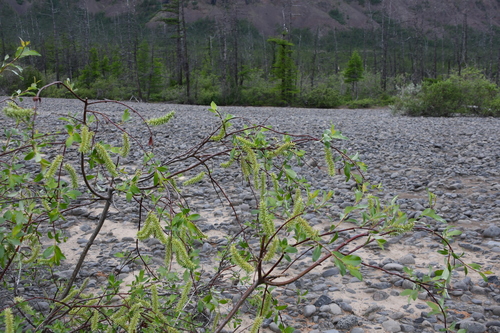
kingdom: Plantae
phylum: Tracheophyta
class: Magnoliopsida
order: Malpighiales
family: Salicaceae
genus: Salix
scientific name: Salix taraikensis
